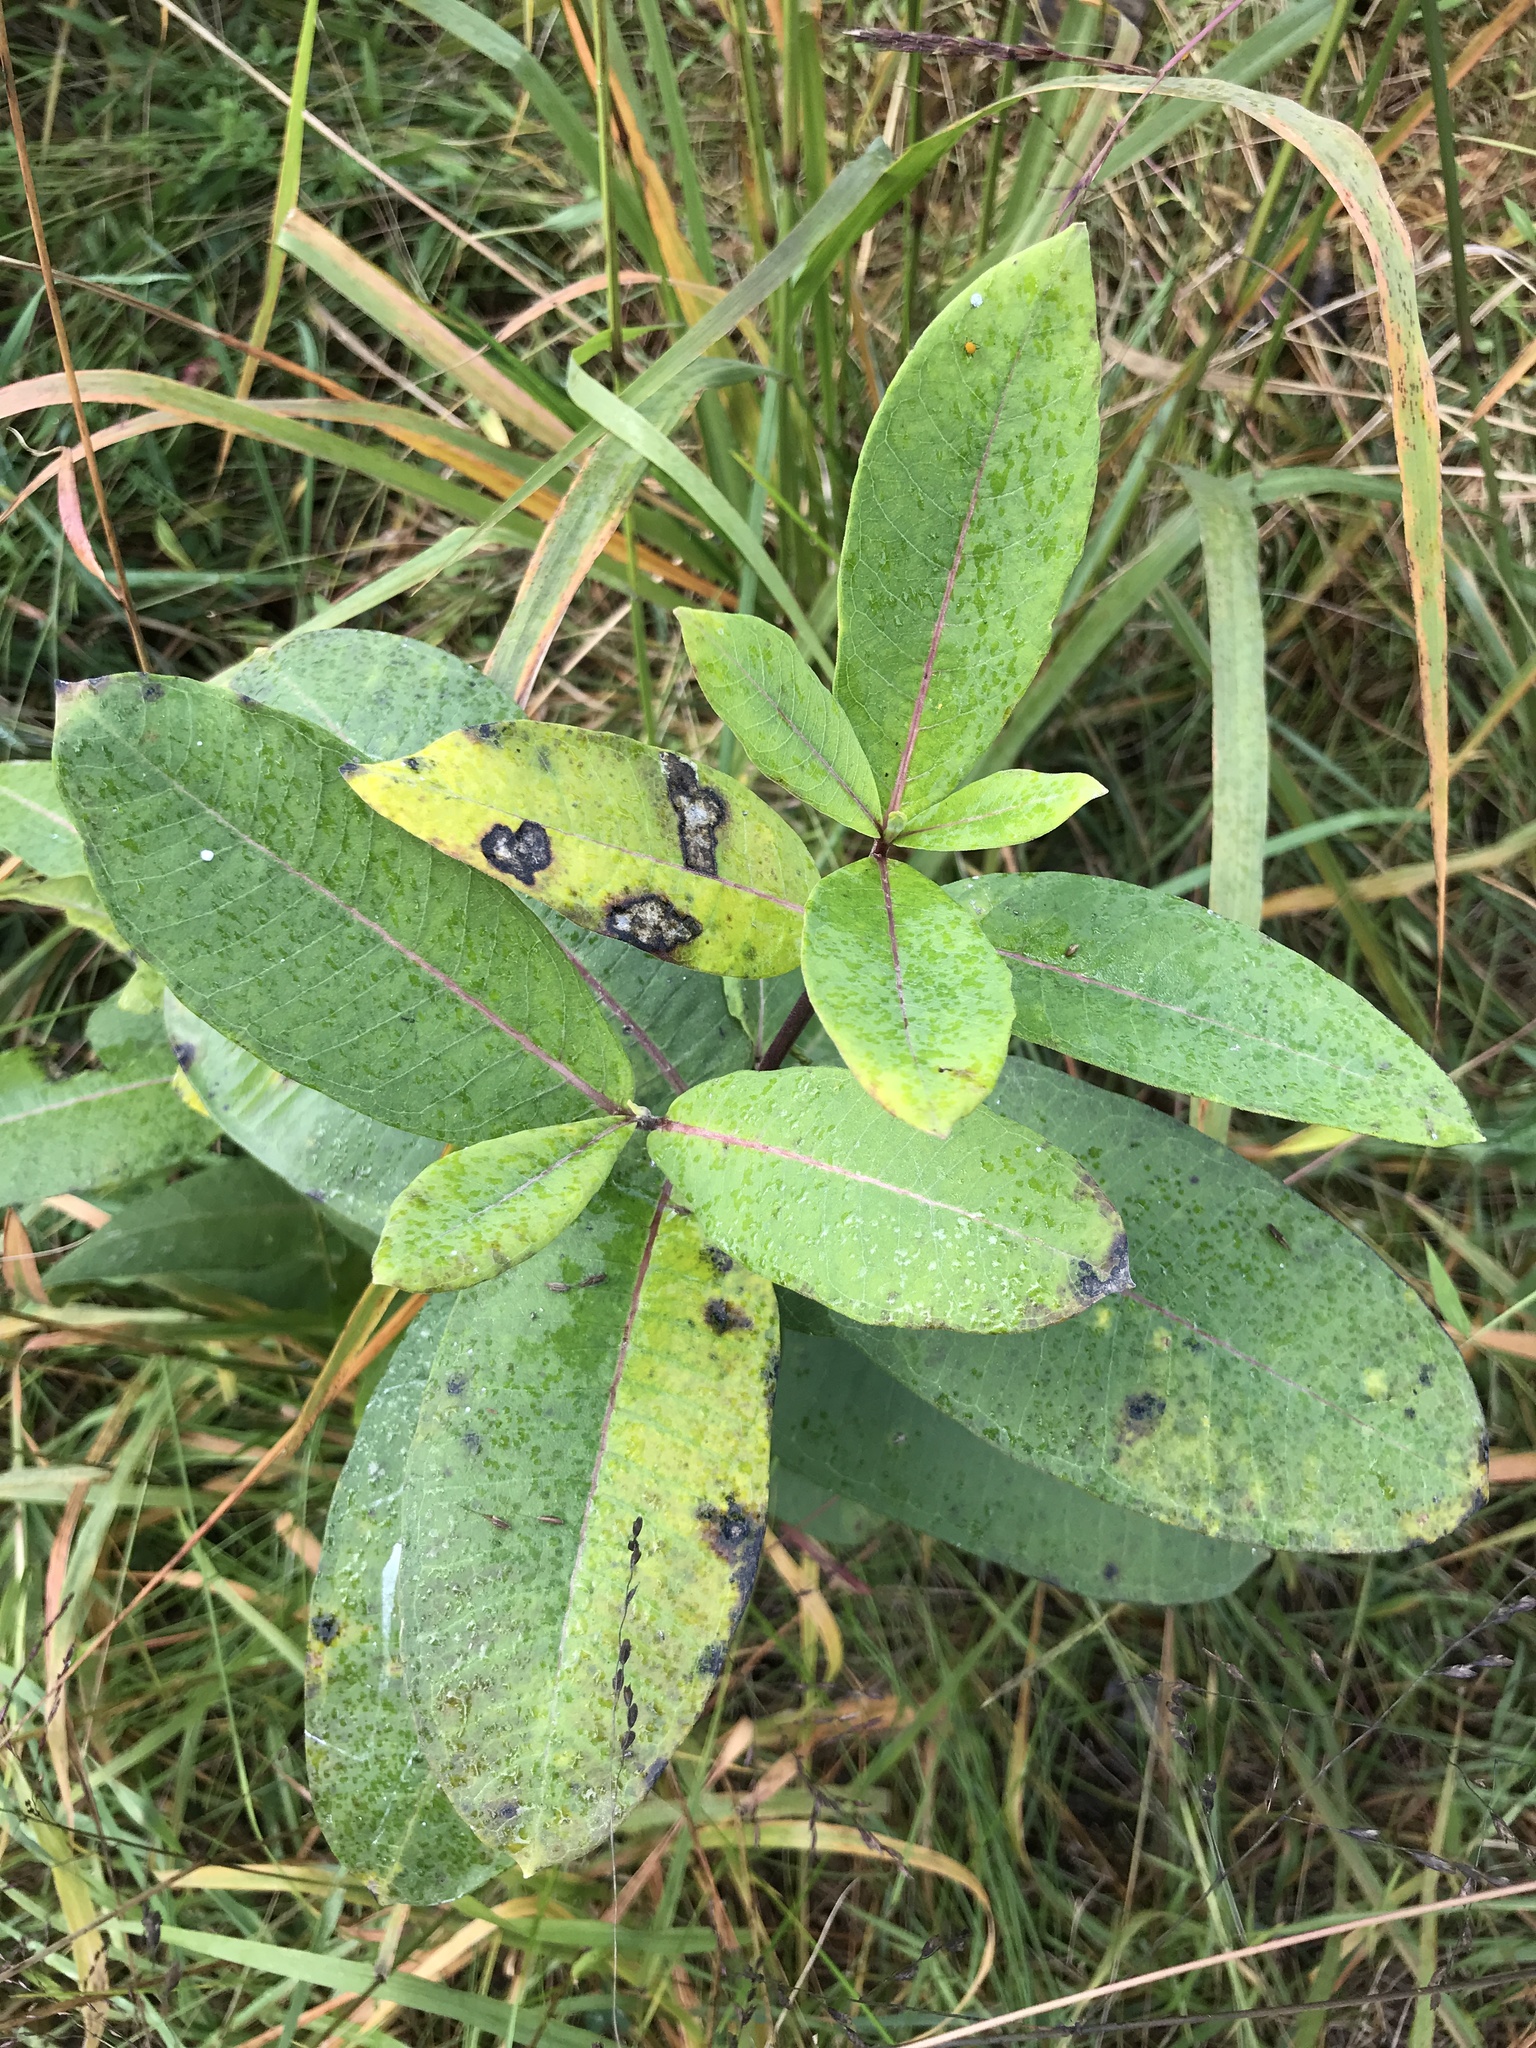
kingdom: Plantae
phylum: Tracheophyta
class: Magnoliopsida
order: Gentianales
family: Apocynaceae
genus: Asclepias
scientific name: Asclepias syriaca
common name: Common milkweed
